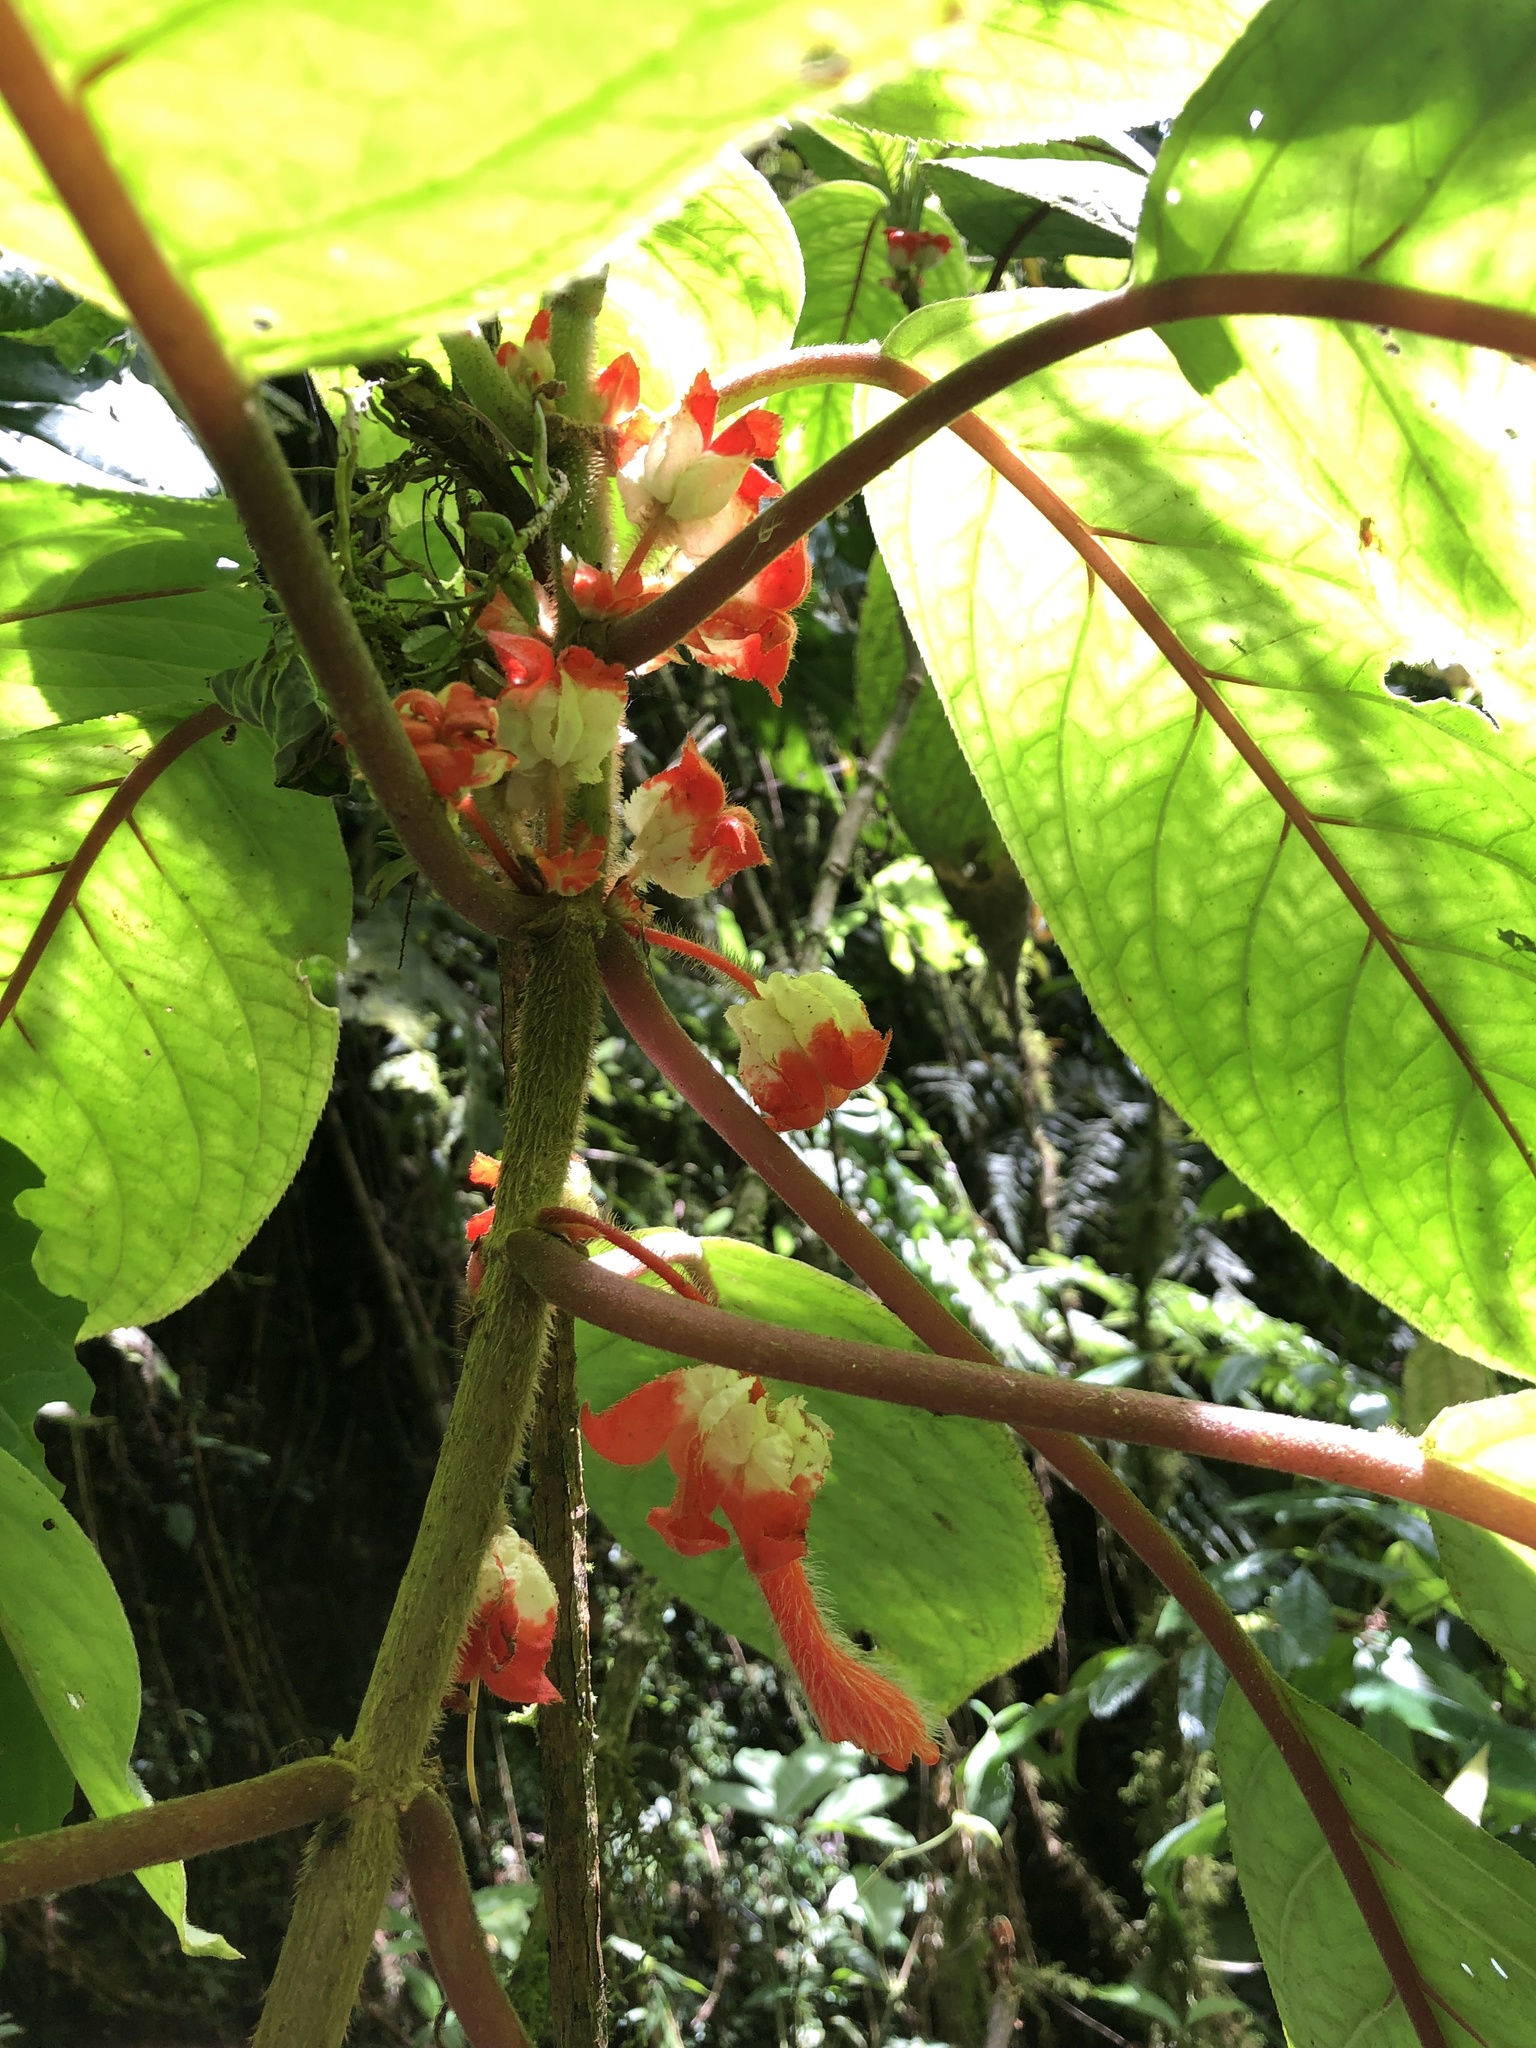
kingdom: Plantae
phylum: Tracheophyta
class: Magnoliopsida
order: Lamiales
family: Gesneriaceae
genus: Glossoloma
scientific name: Glossoloma schultzei
